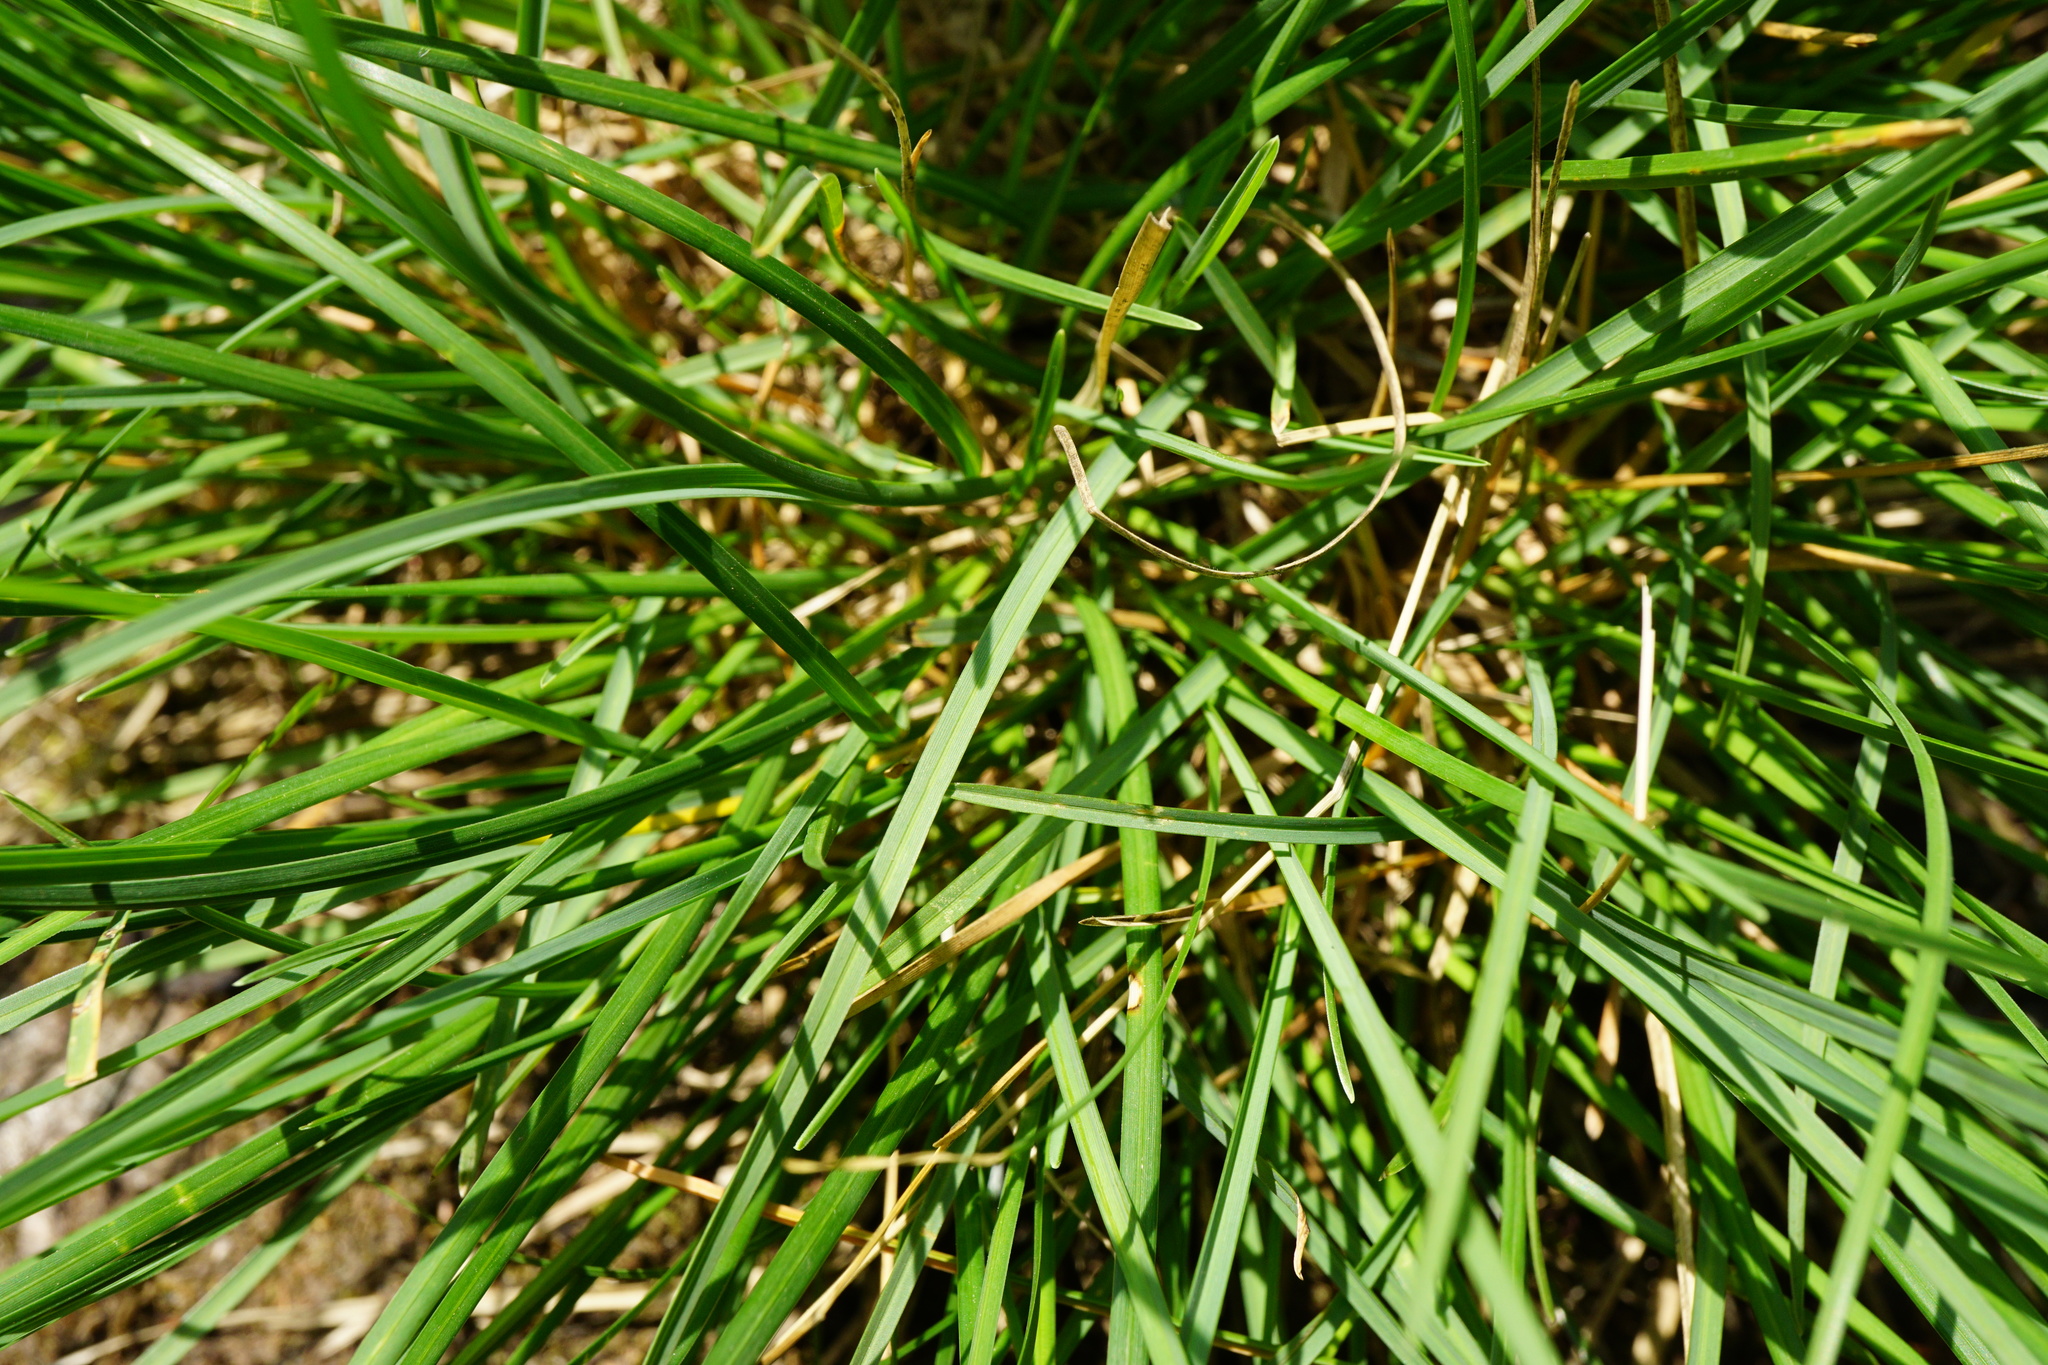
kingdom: Plantae
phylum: Tracheophyta
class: Liliopsida
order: Poales
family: Poaceae
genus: Sesleria
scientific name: Sesleria albicans
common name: Blue moor-grass
